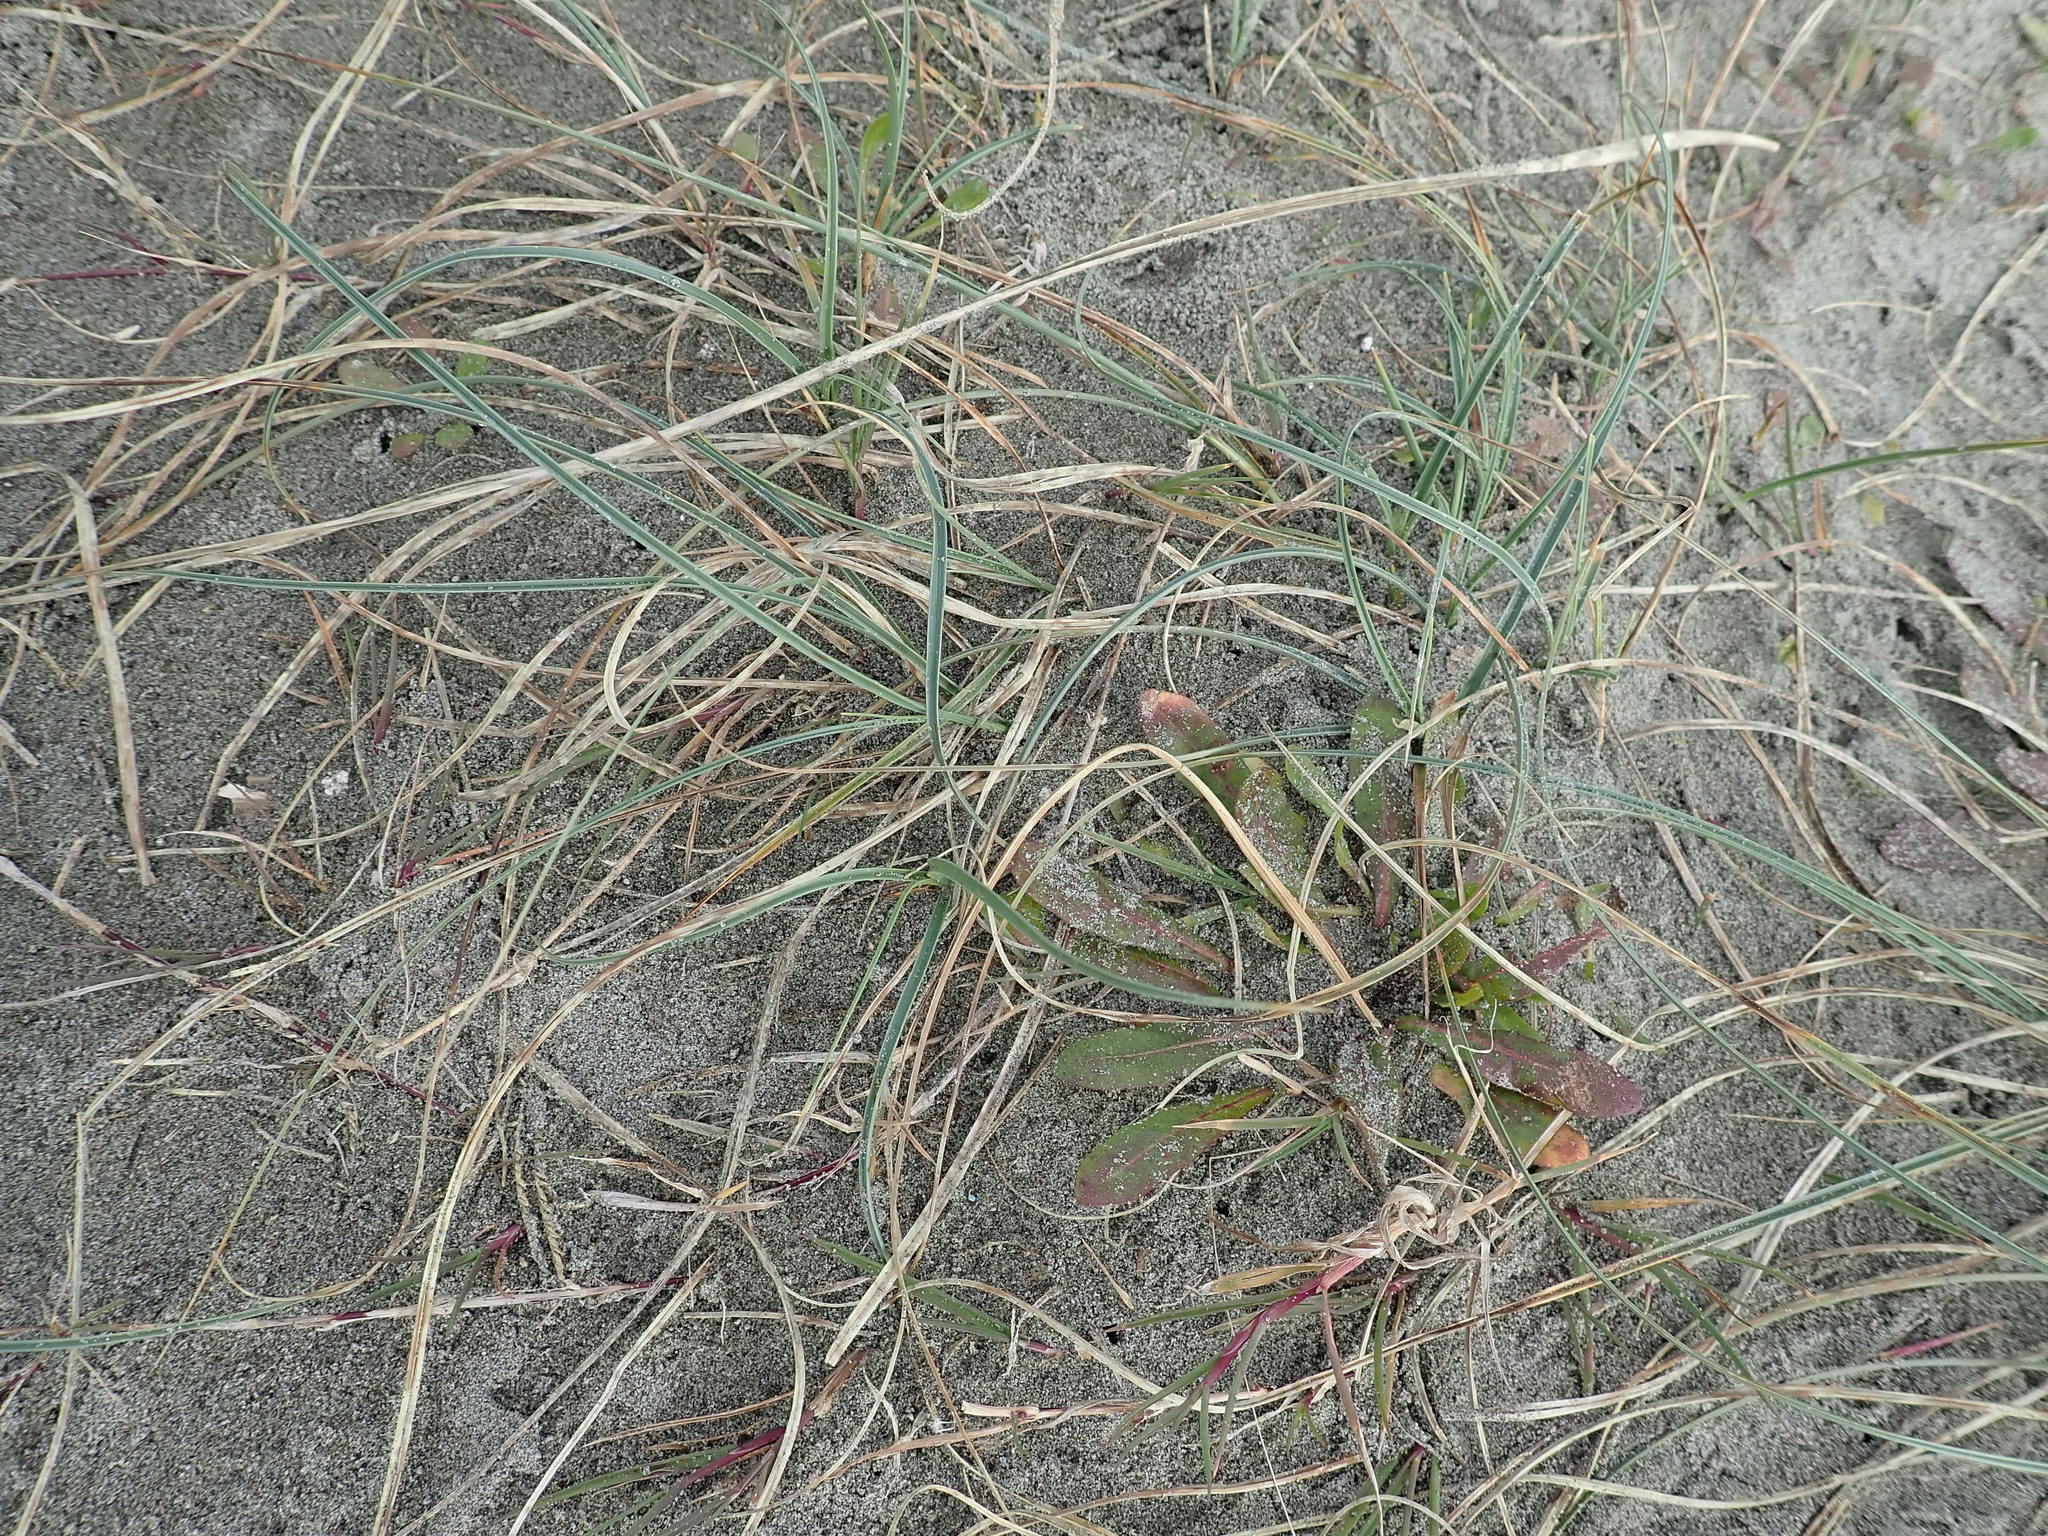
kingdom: Plantae
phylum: Tracheophyta
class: Liliopsida
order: Poales
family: Cyperaceae
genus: Carex
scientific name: Carex pumila
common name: Dwarf sedge
